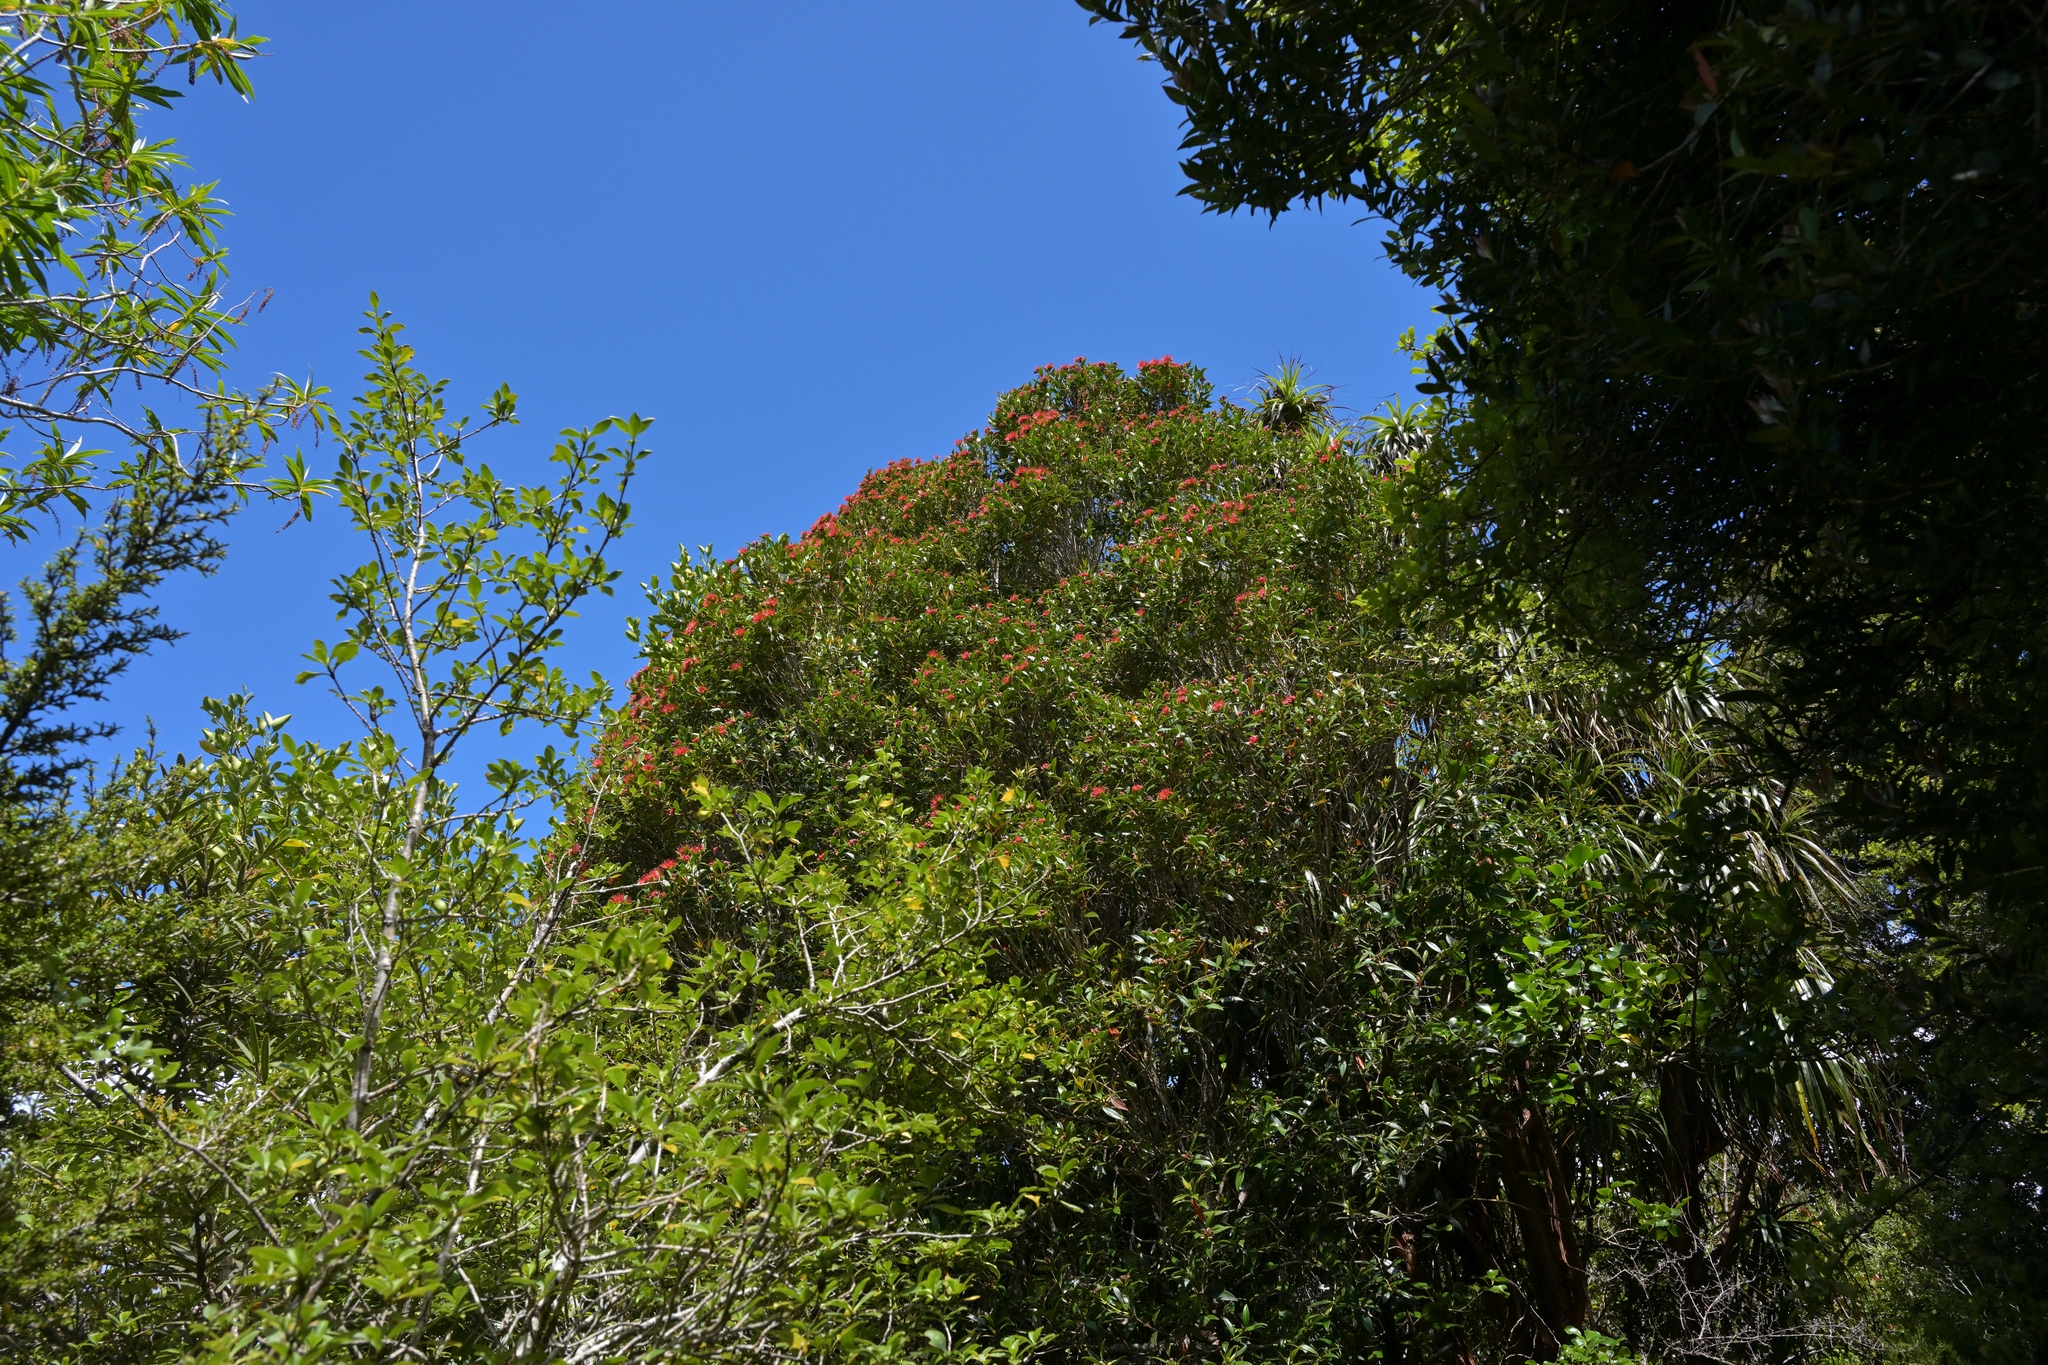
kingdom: Plantae
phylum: Tracheophyta
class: Magnoliopsida
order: Myrtales
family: Myrtaceae
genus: Metrosideros
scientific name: Metrosideros umbellata
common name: Southern rata
